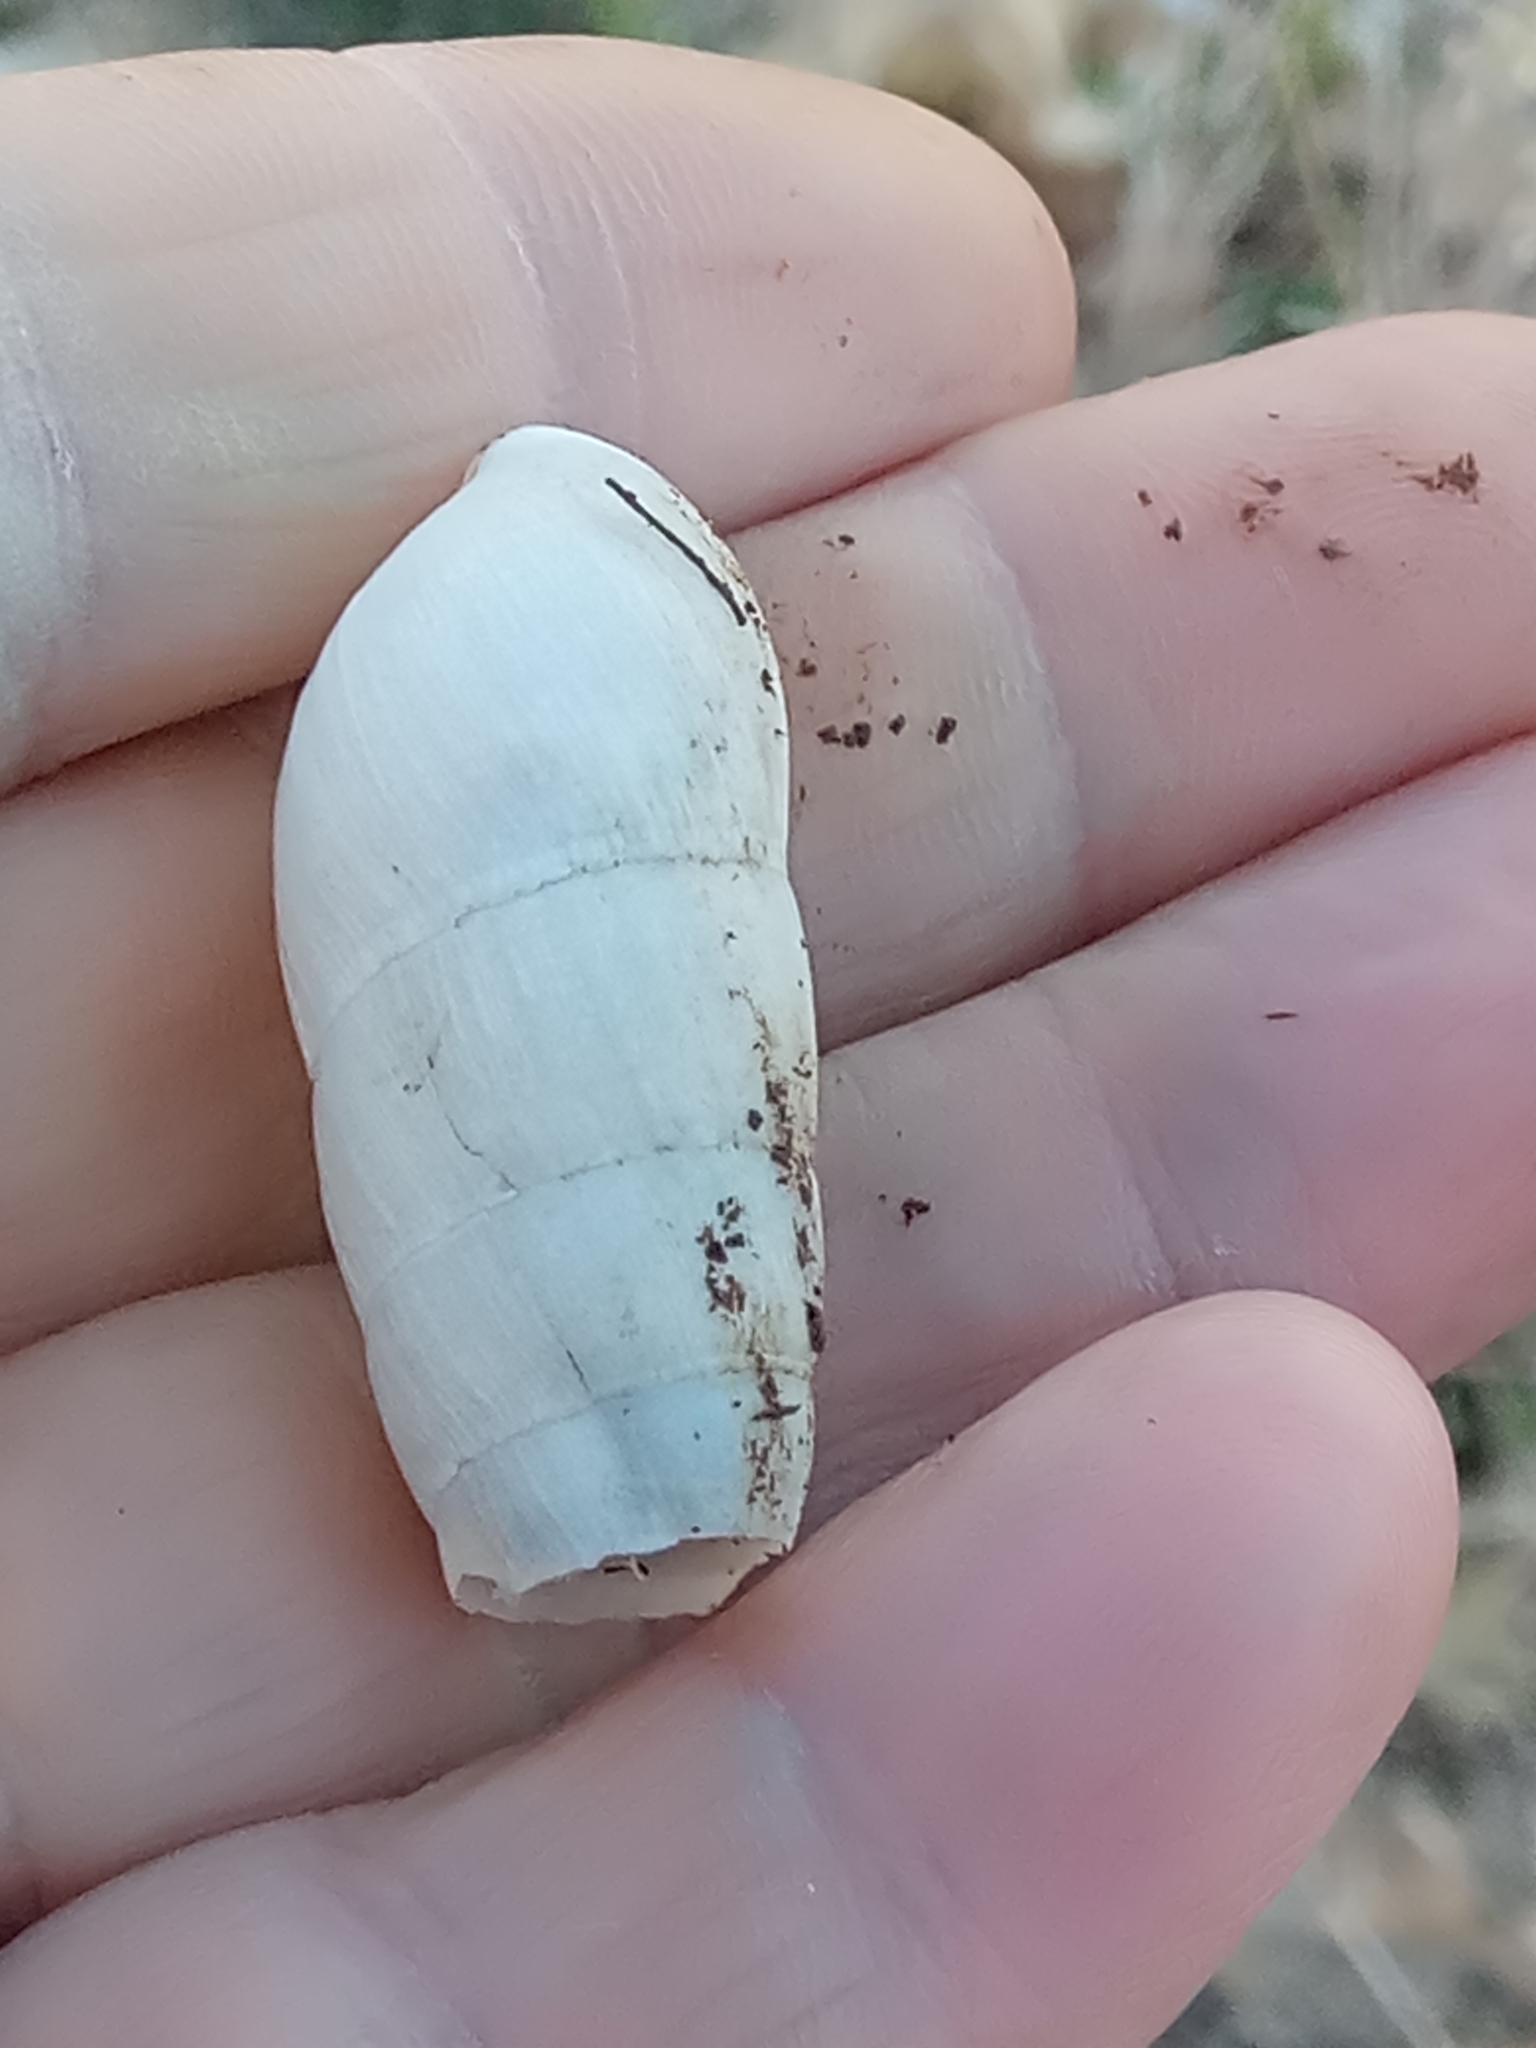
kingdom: Animalia
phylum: Mollusca
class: Gastropoda
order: Stylommatophora
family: Achatinidae
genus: Rumina
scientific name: Rumina decollata
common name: Decollate snail
